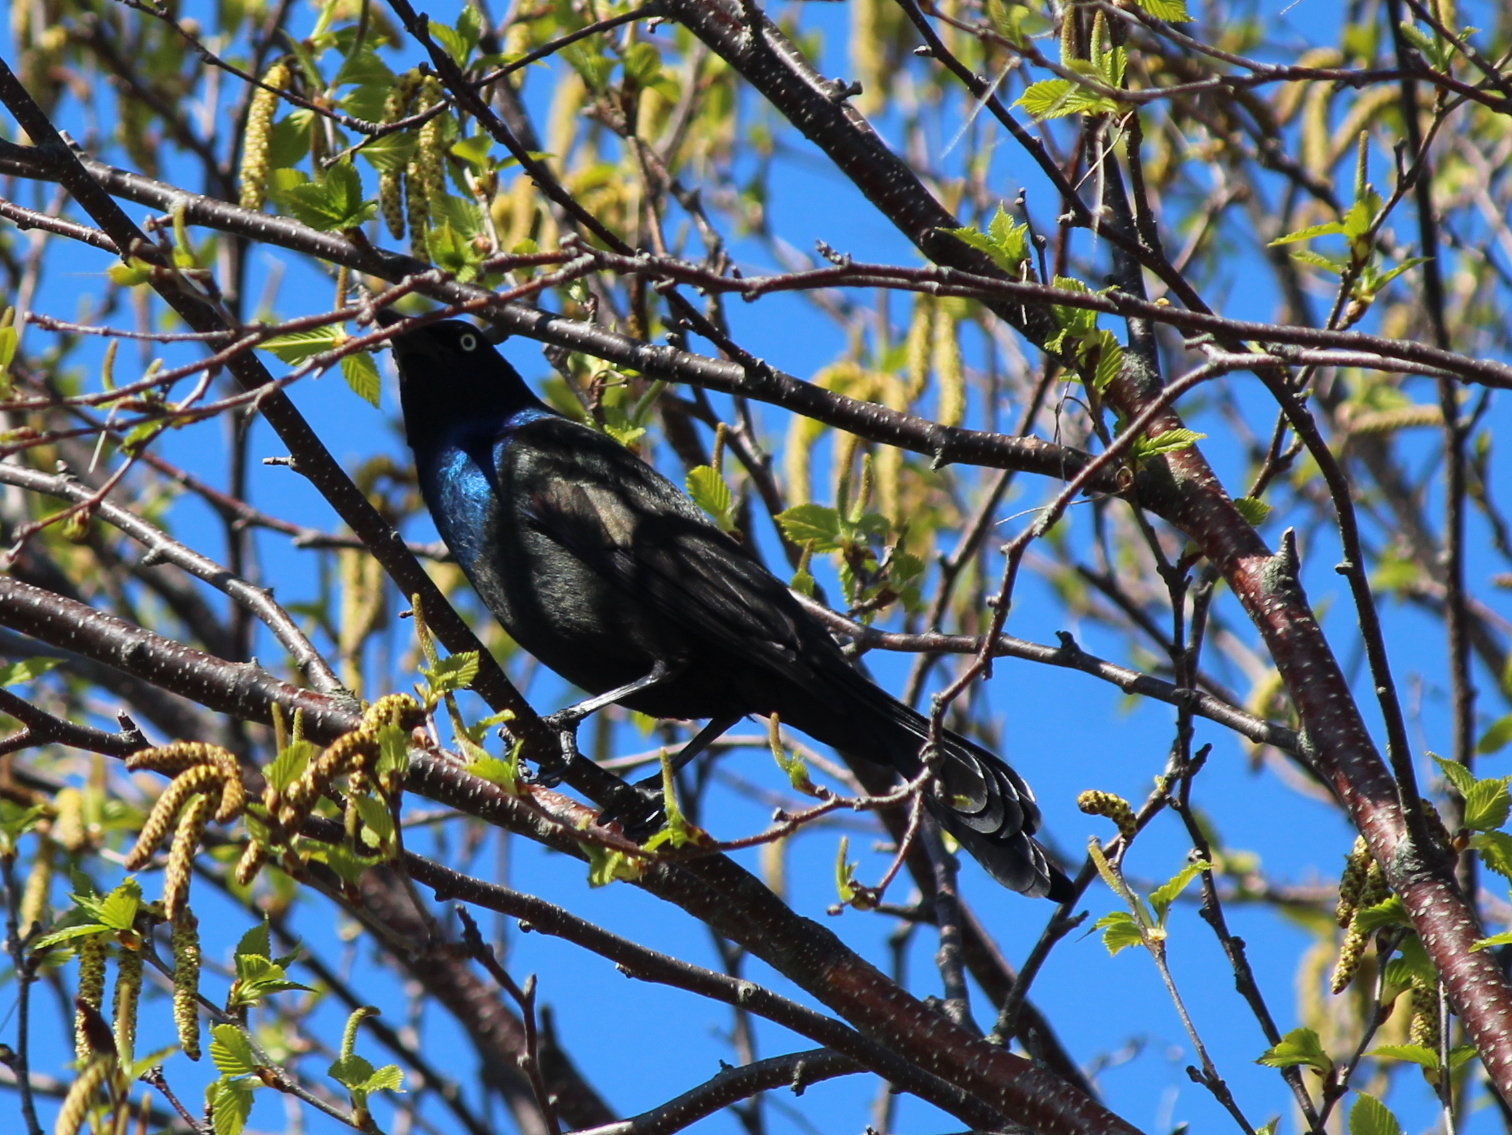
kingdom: Animalia
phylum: Chordata
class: Aves
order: Passeriformes
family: Icteridae
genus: Quiscalus
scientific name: Quiscalus quiscula
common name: Common grackle
